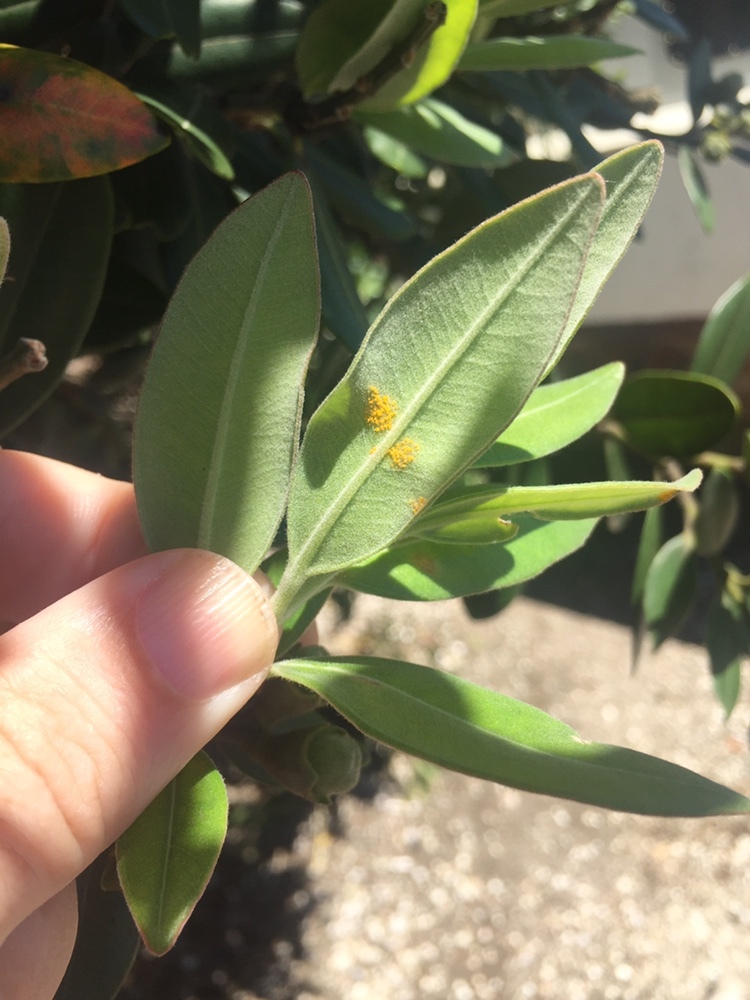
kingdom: Fungi
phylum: Basidiomycota
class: Pucciniomycetes
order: Pucciniales
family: Sphaerophragmiaceae
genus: Austropuccinia
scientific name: Austropuccinia psidii
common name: Myrtle rust
